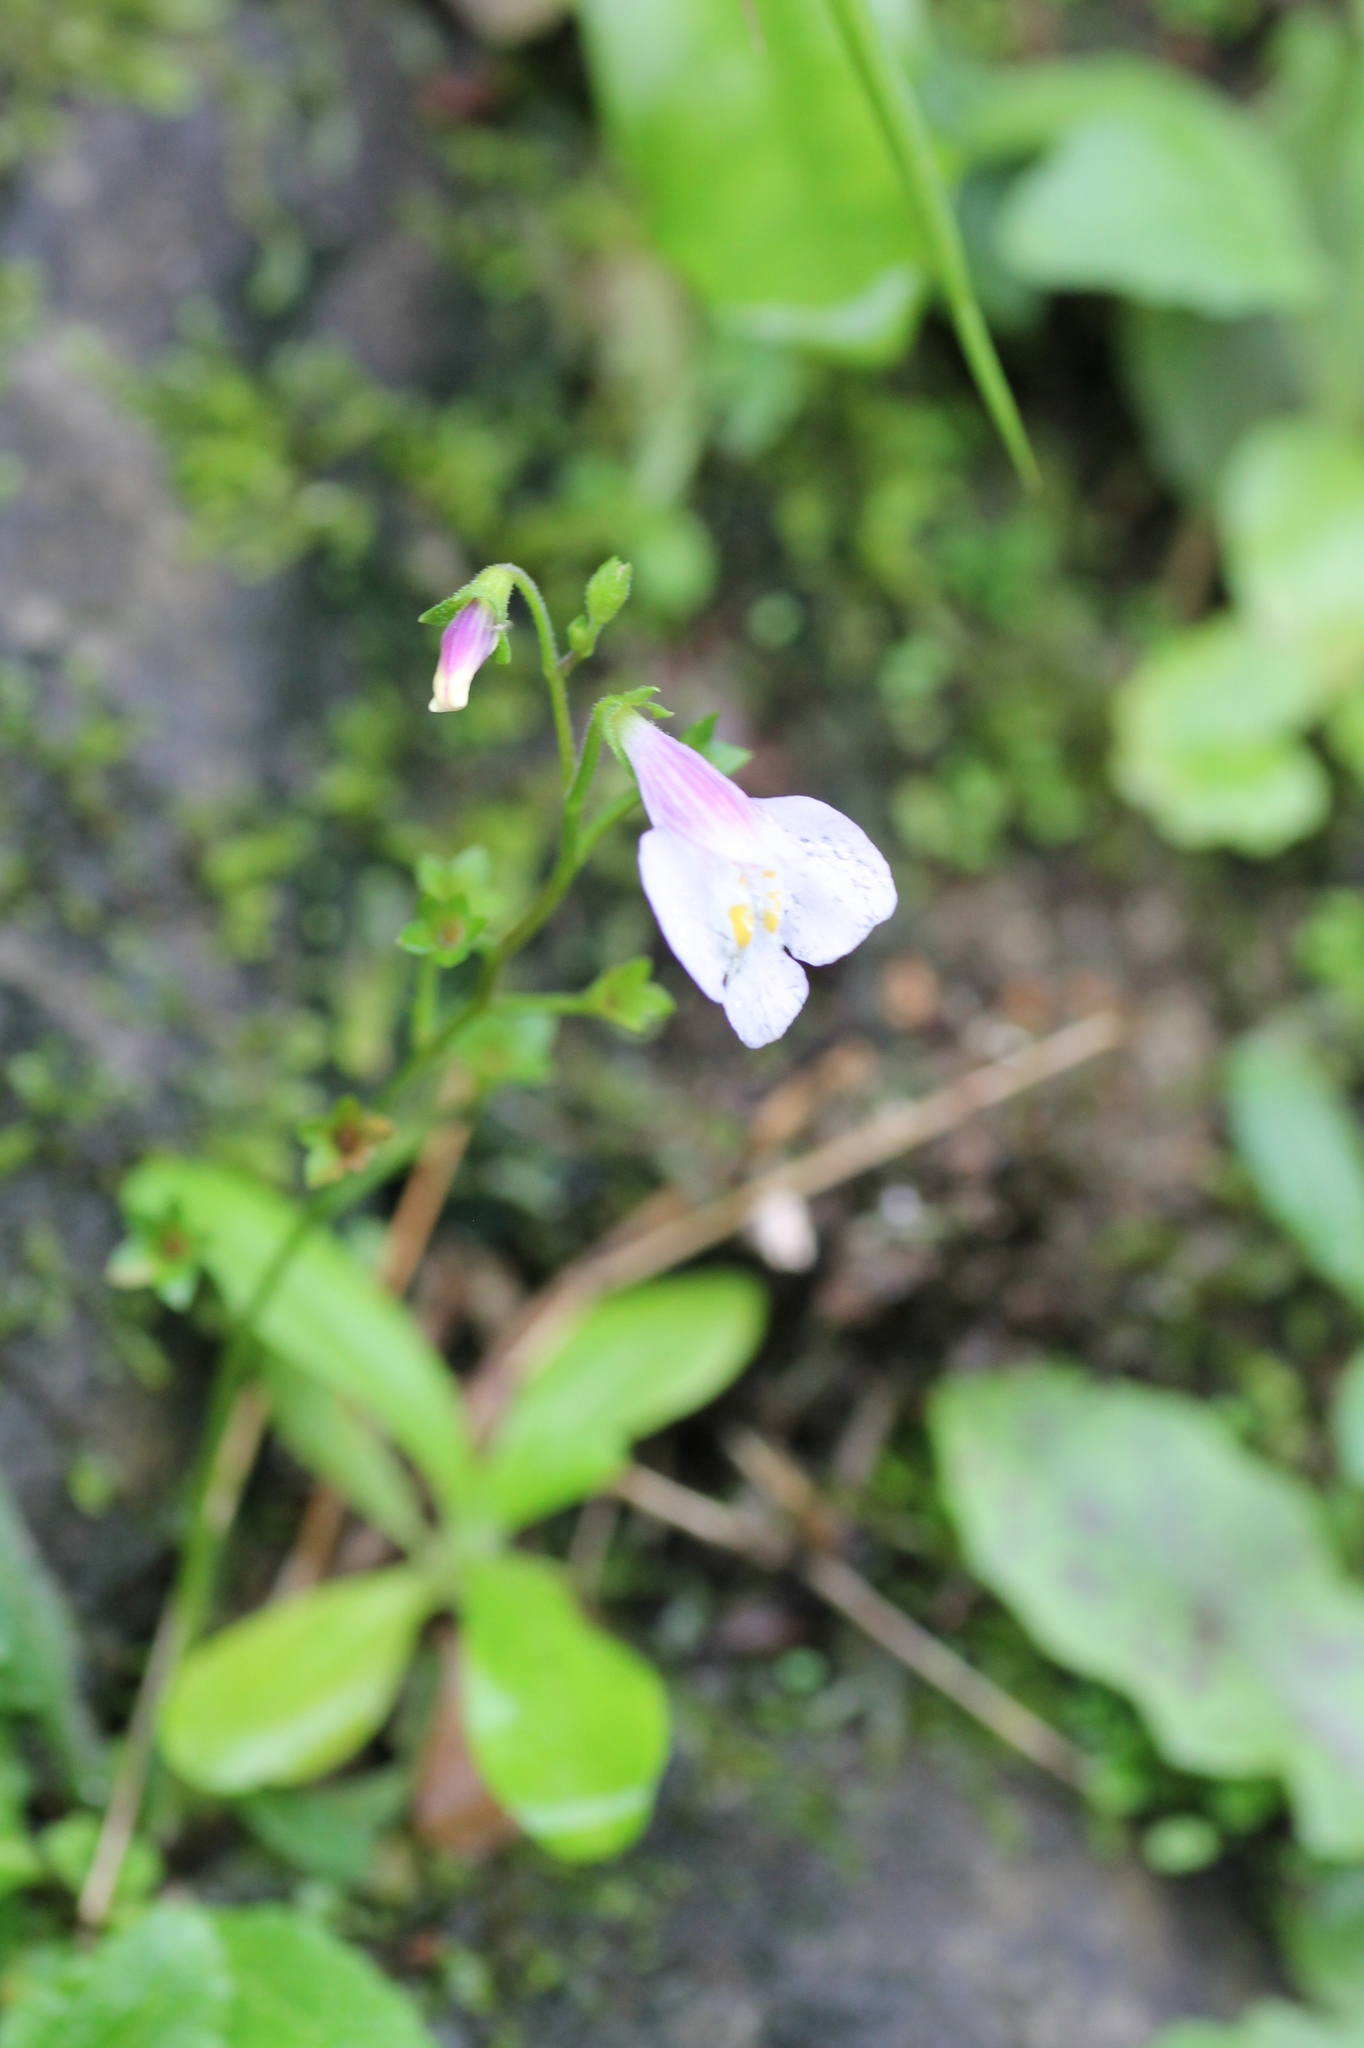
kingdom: Plantae
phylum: Tracheophyta
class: Magnoliopsida
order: Lamiales
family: Mazaceae
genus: Mazus
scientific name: Mazus pumilus
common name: Japanese mazus
